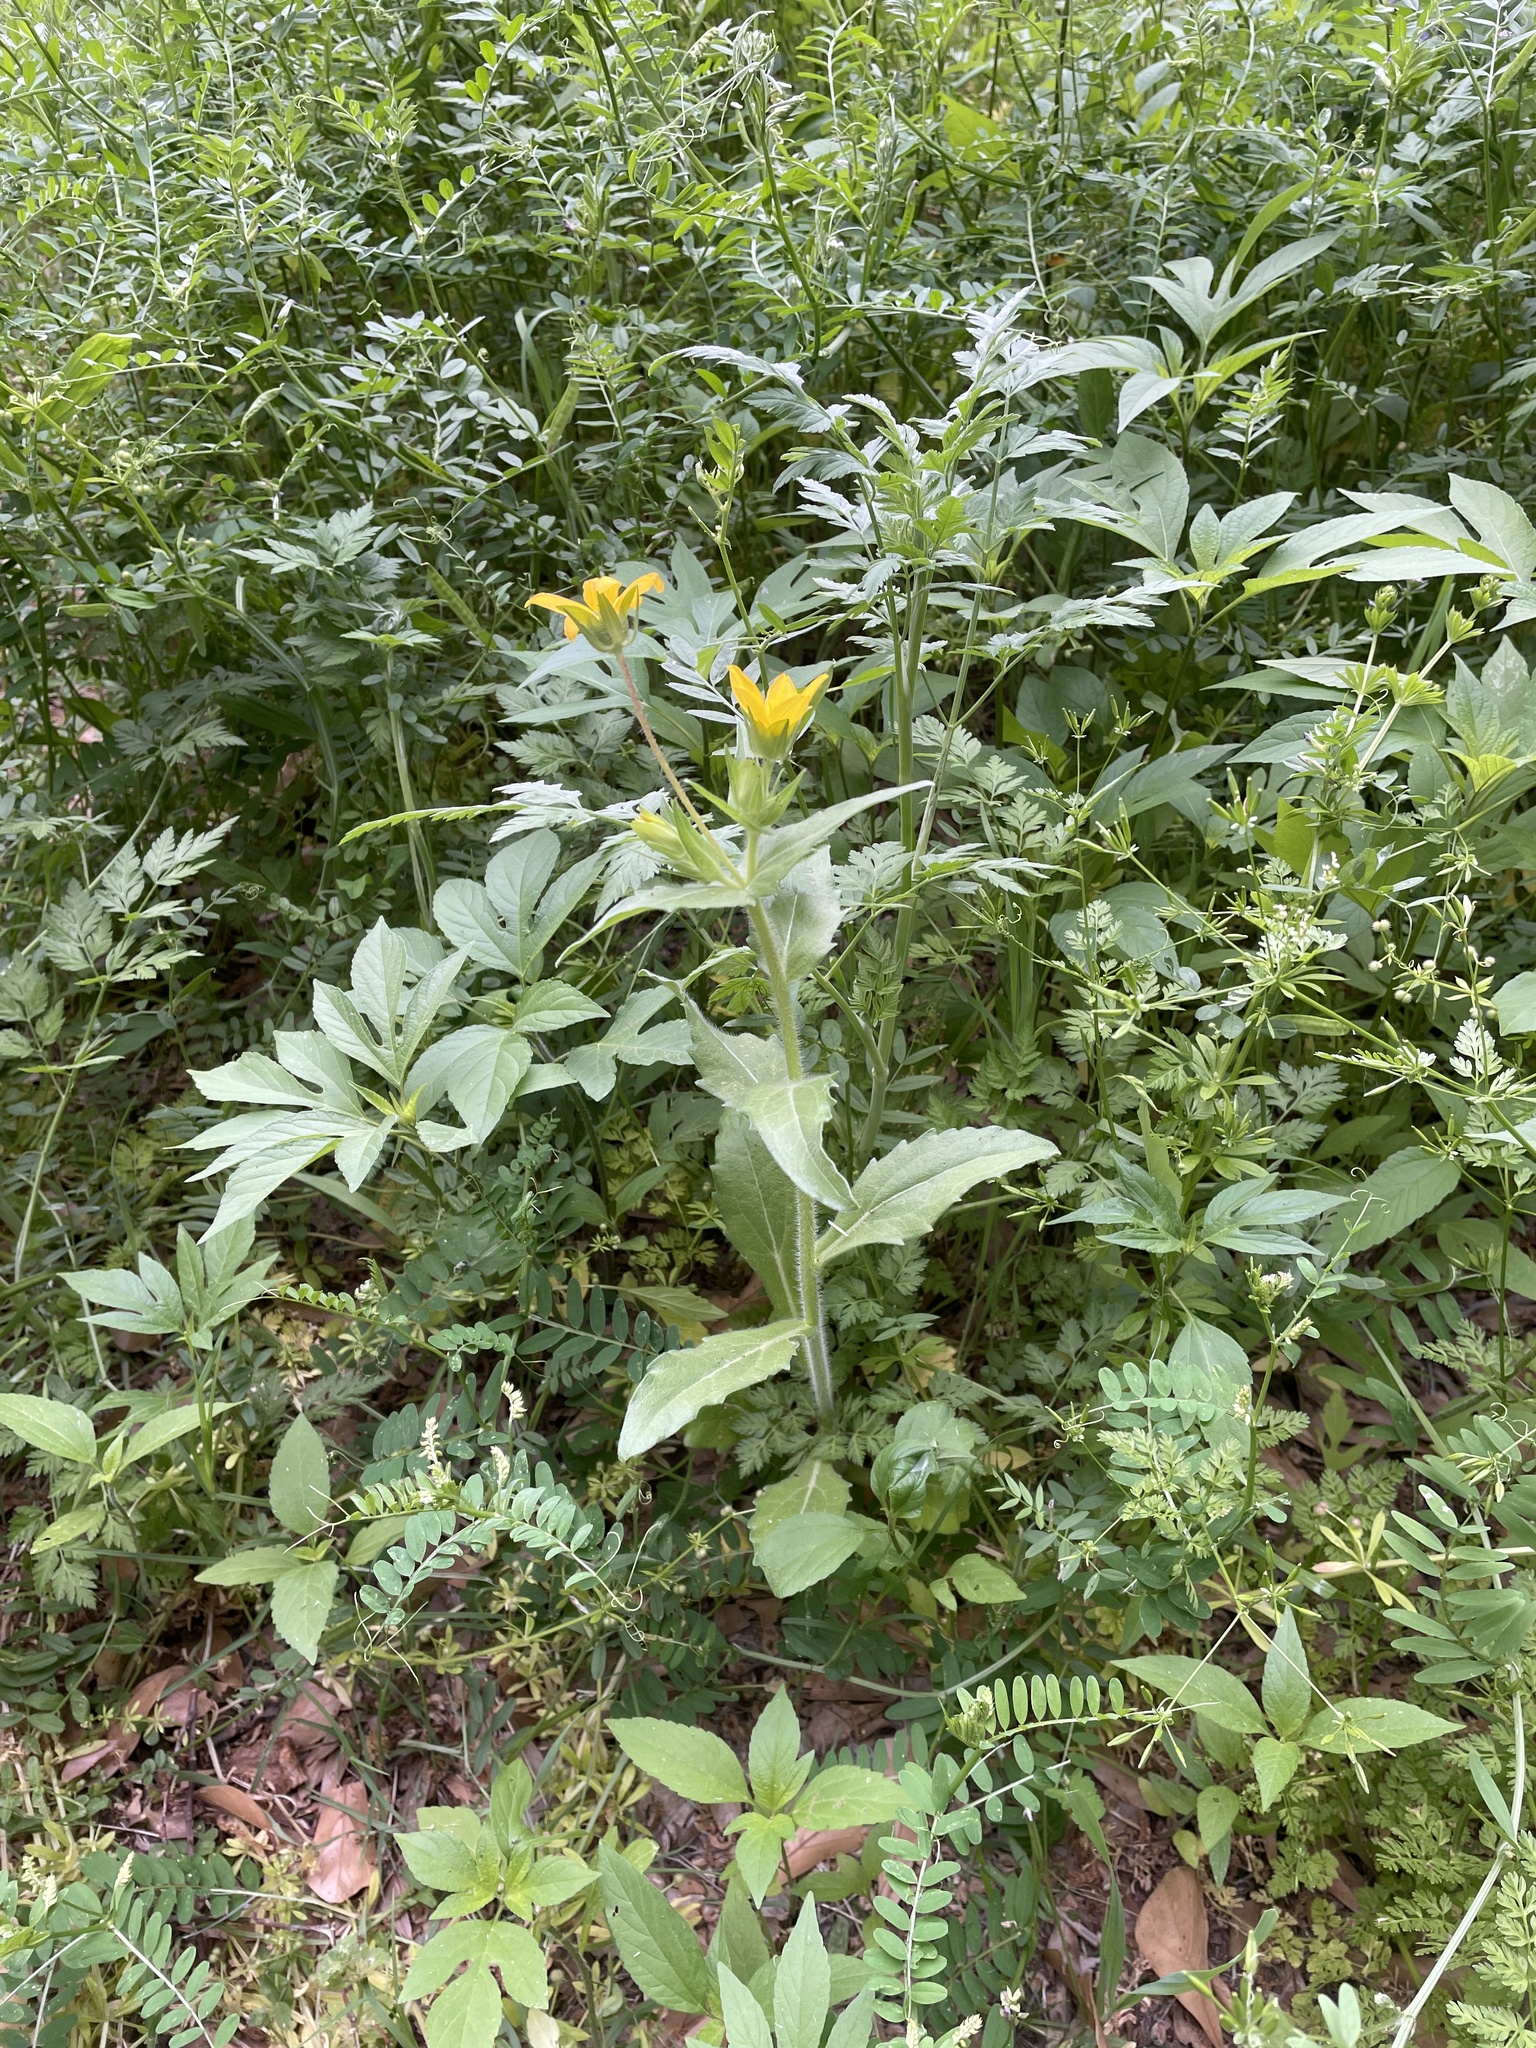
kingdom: Plantae
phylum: Tracheophyta
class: Magnoliopsida
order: Asterales
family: Asteraceae
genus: Lindheimera
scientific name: Lindheimera texana
